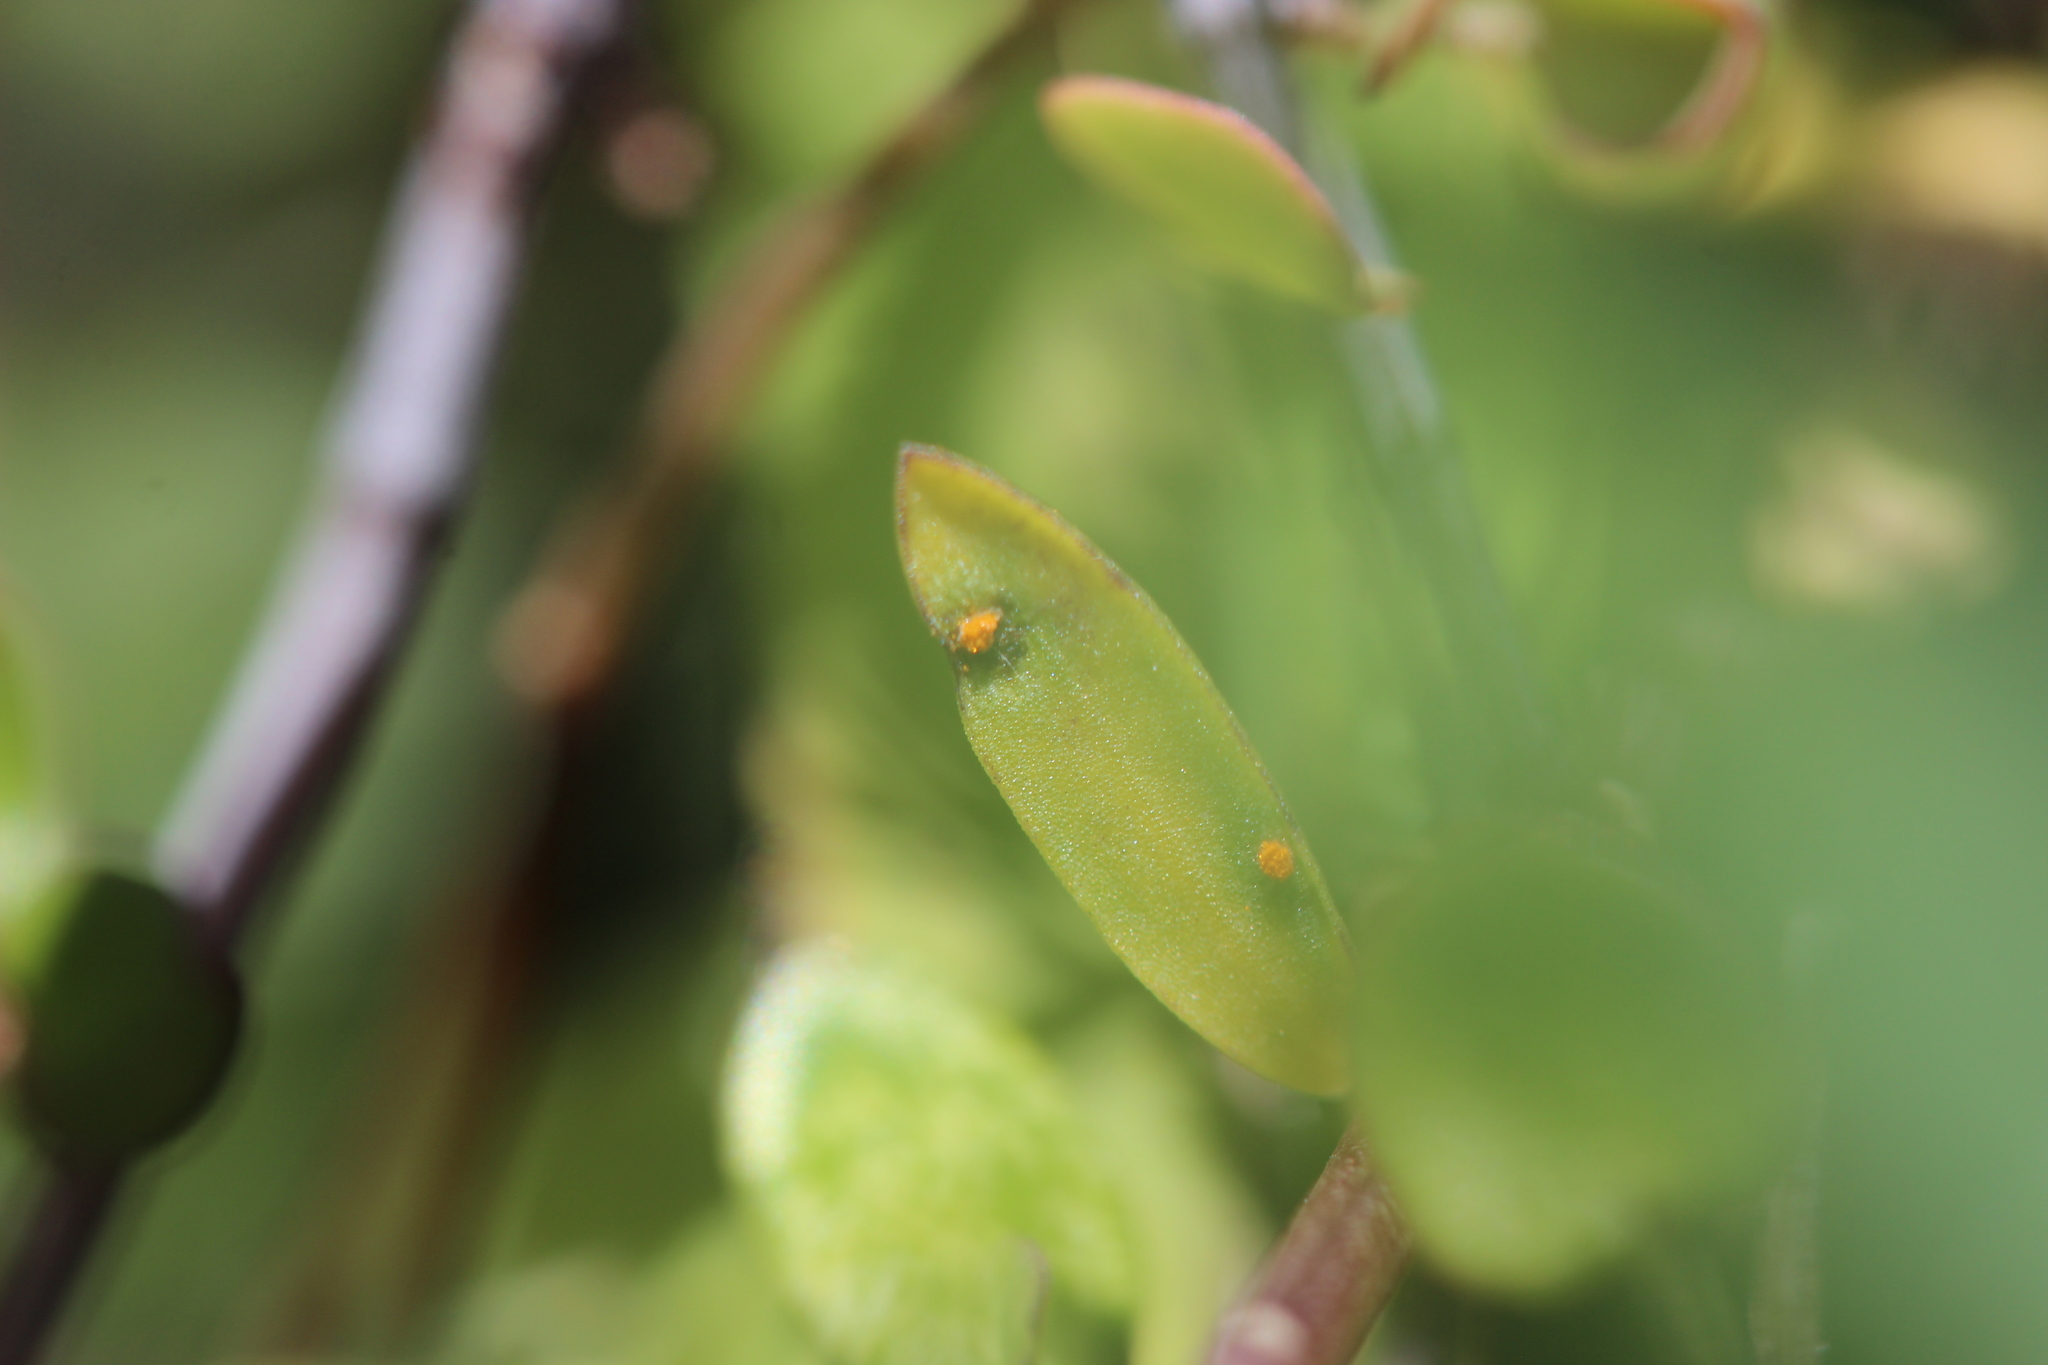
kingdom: Fungi
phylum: Basidiomycota
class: Pucciniomycetes
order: Pucciniales
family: Melampsoraceae
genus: Melampsora
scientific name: Melampsora lini
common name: Flax rust
